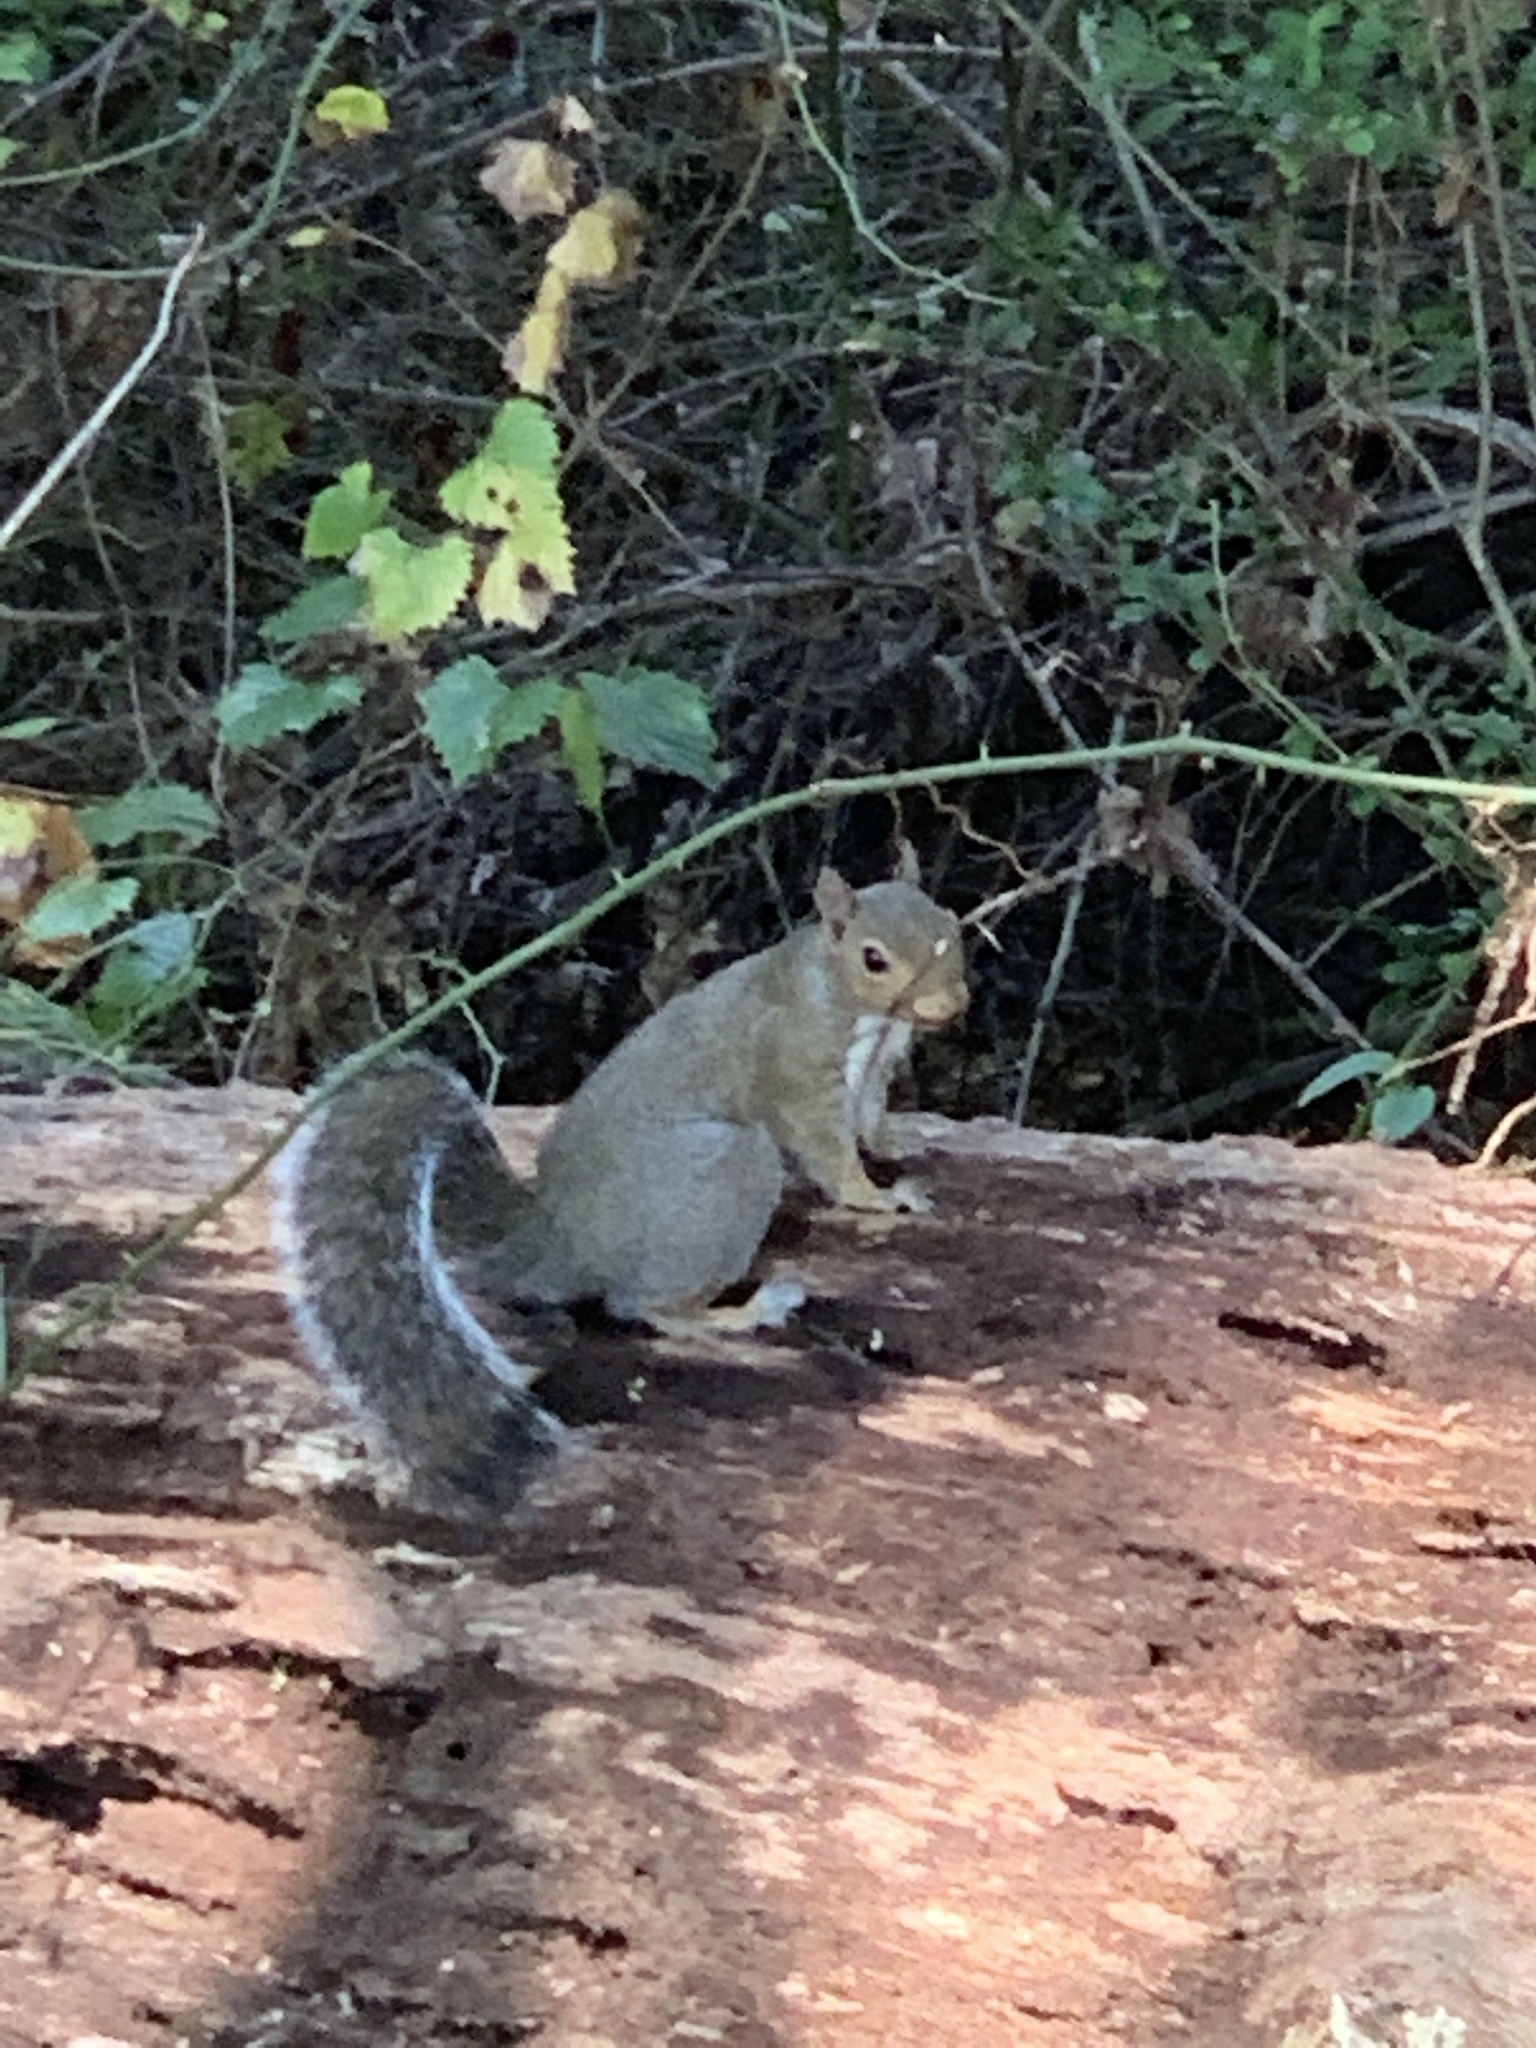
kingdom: Animalia
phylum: Chordata
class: Mammalia
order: Rodentia
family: Sciuridae
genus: Sciurus
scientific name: Sciurus carolinensis
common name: Eastern gray squirrel
